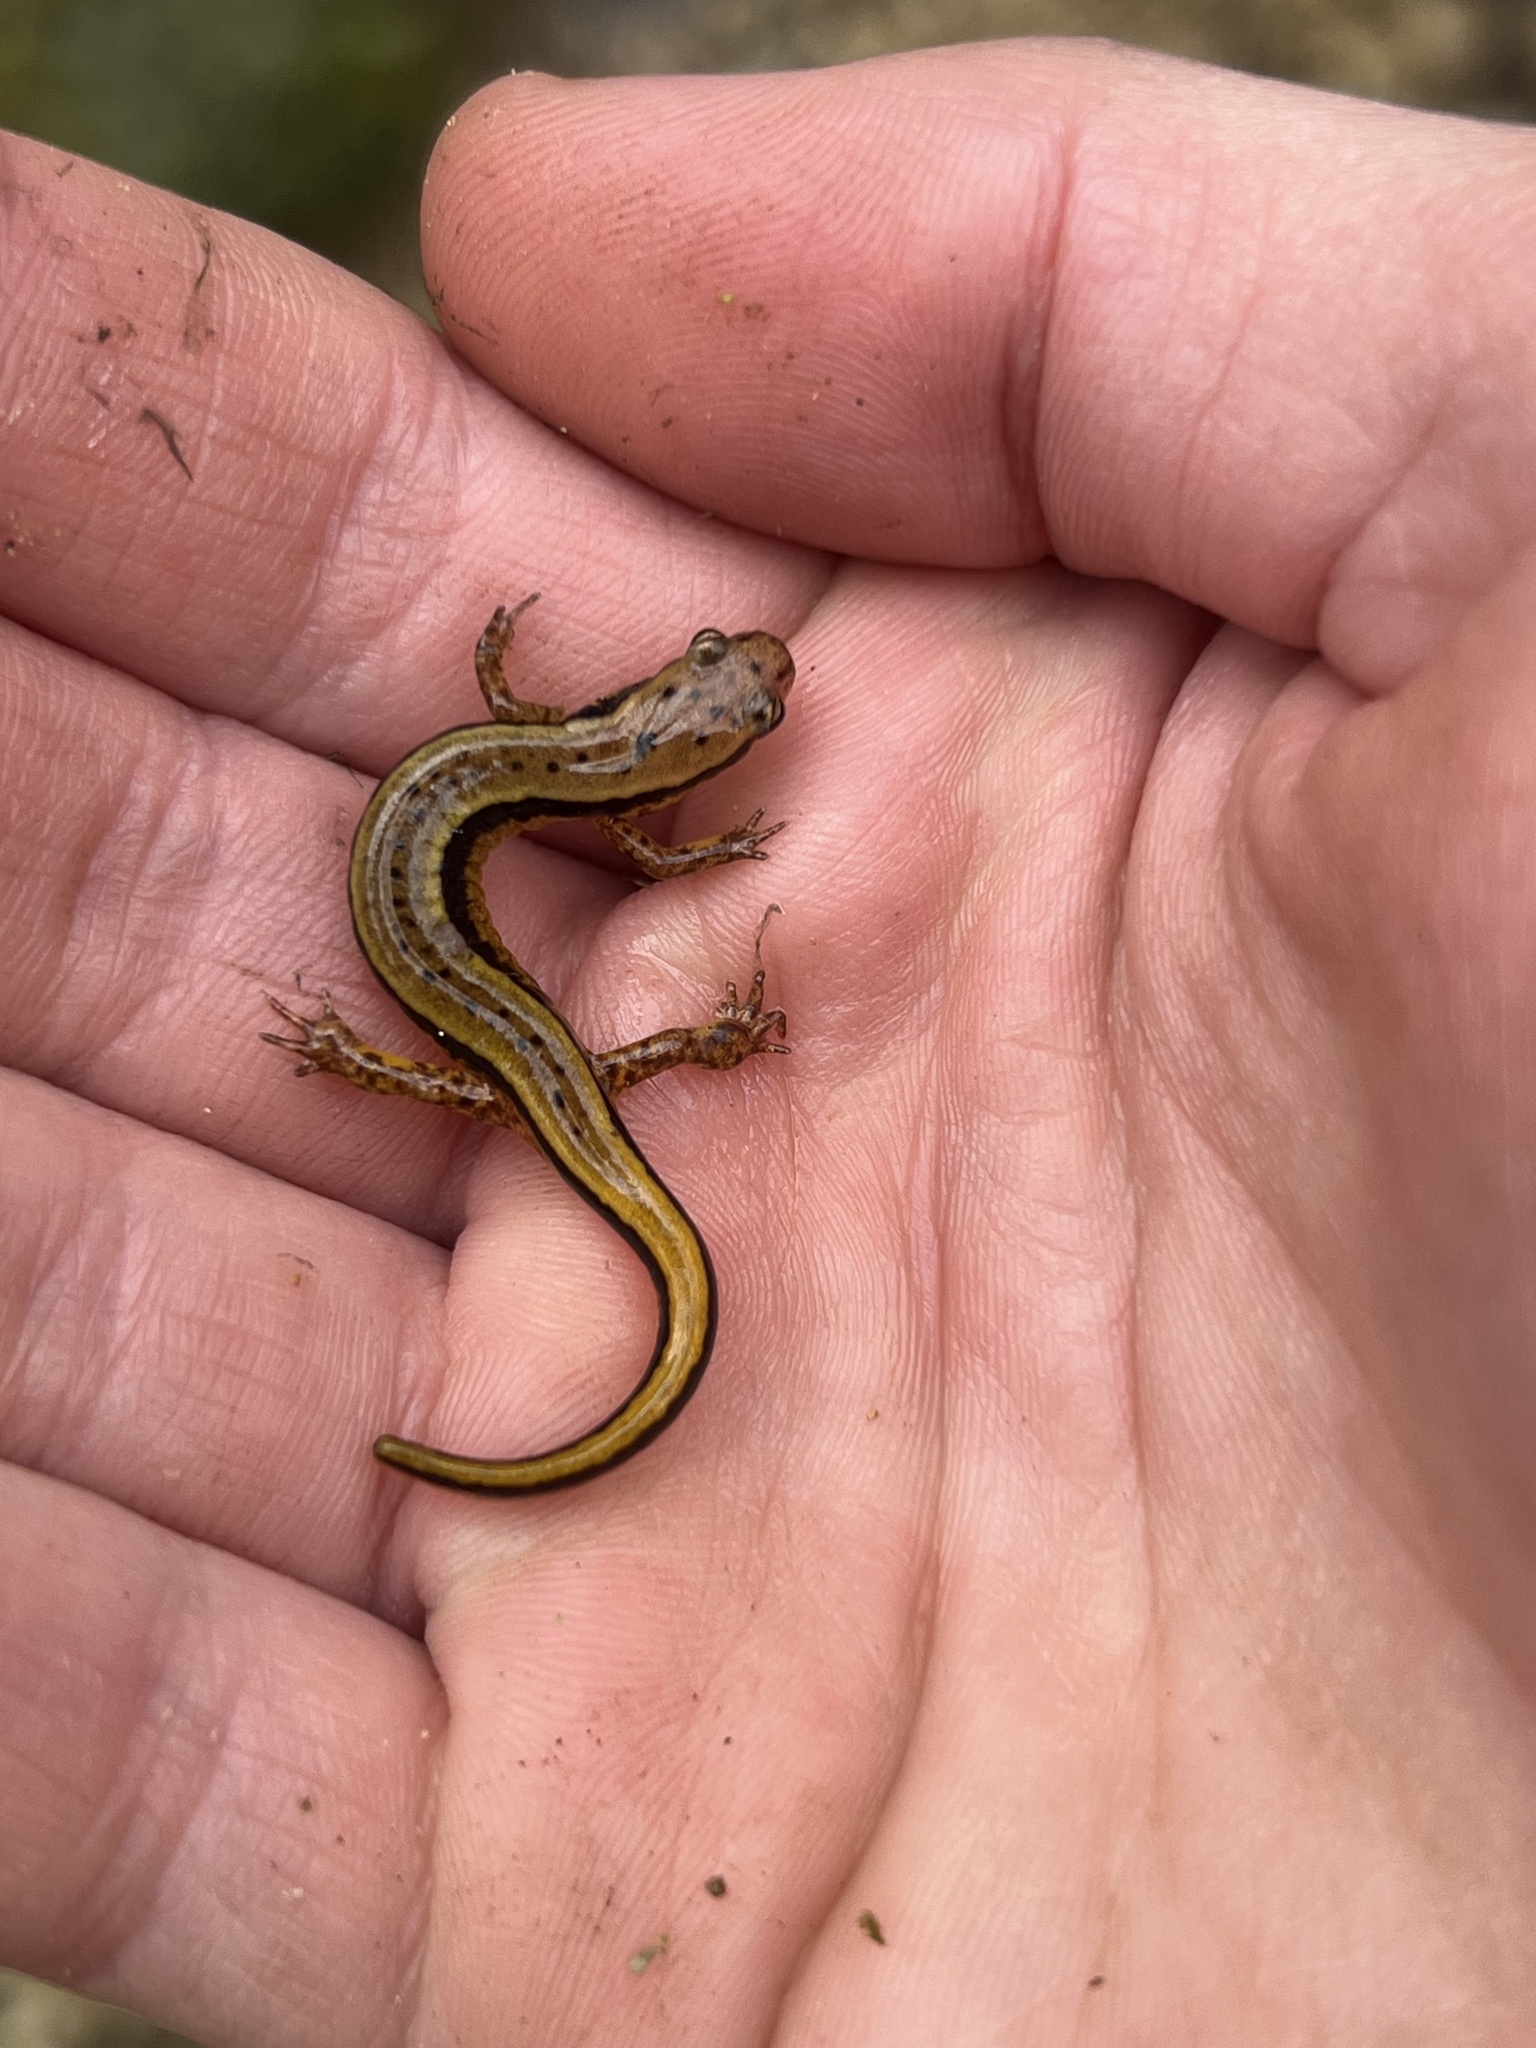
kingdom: Animalia
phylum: Chordata
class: Amphibia
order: Caudata
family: Plethodontidae
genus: Eurycea
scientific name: Eurycea cirrigera
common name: Southern two-lined salamander
